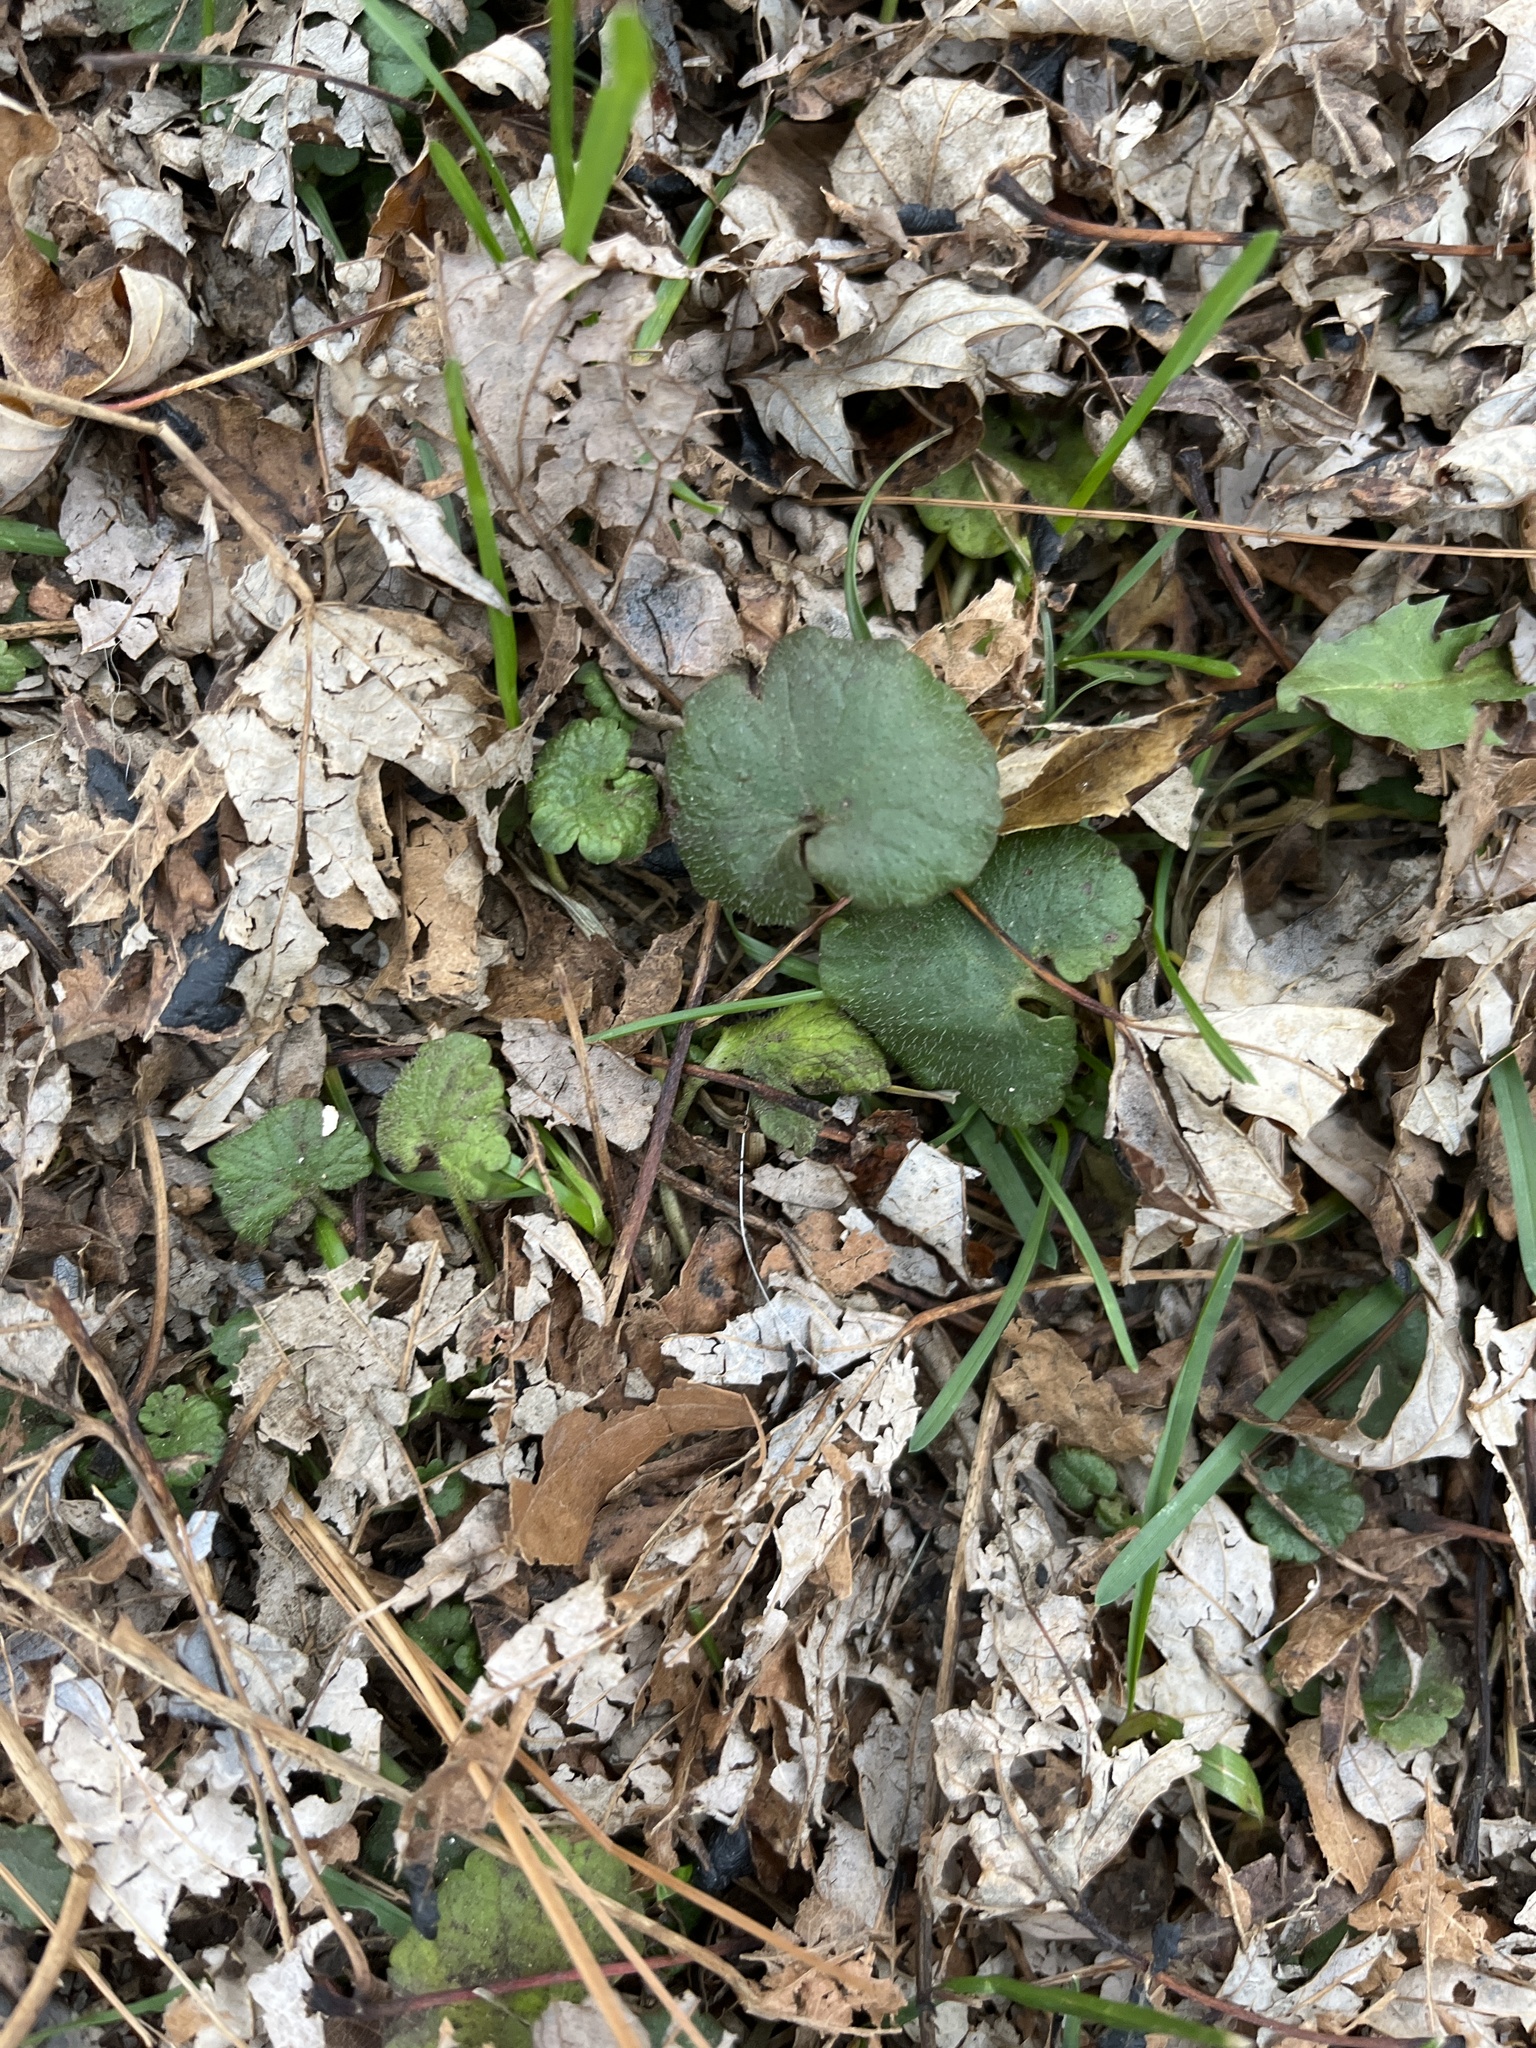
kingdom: Plantae
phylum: Tracheophyta
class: Magnoliopsida
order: Lamiales
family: Lamiaceae
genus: Glechoma
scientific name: Glechoma hederacea
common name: Ground ivy
